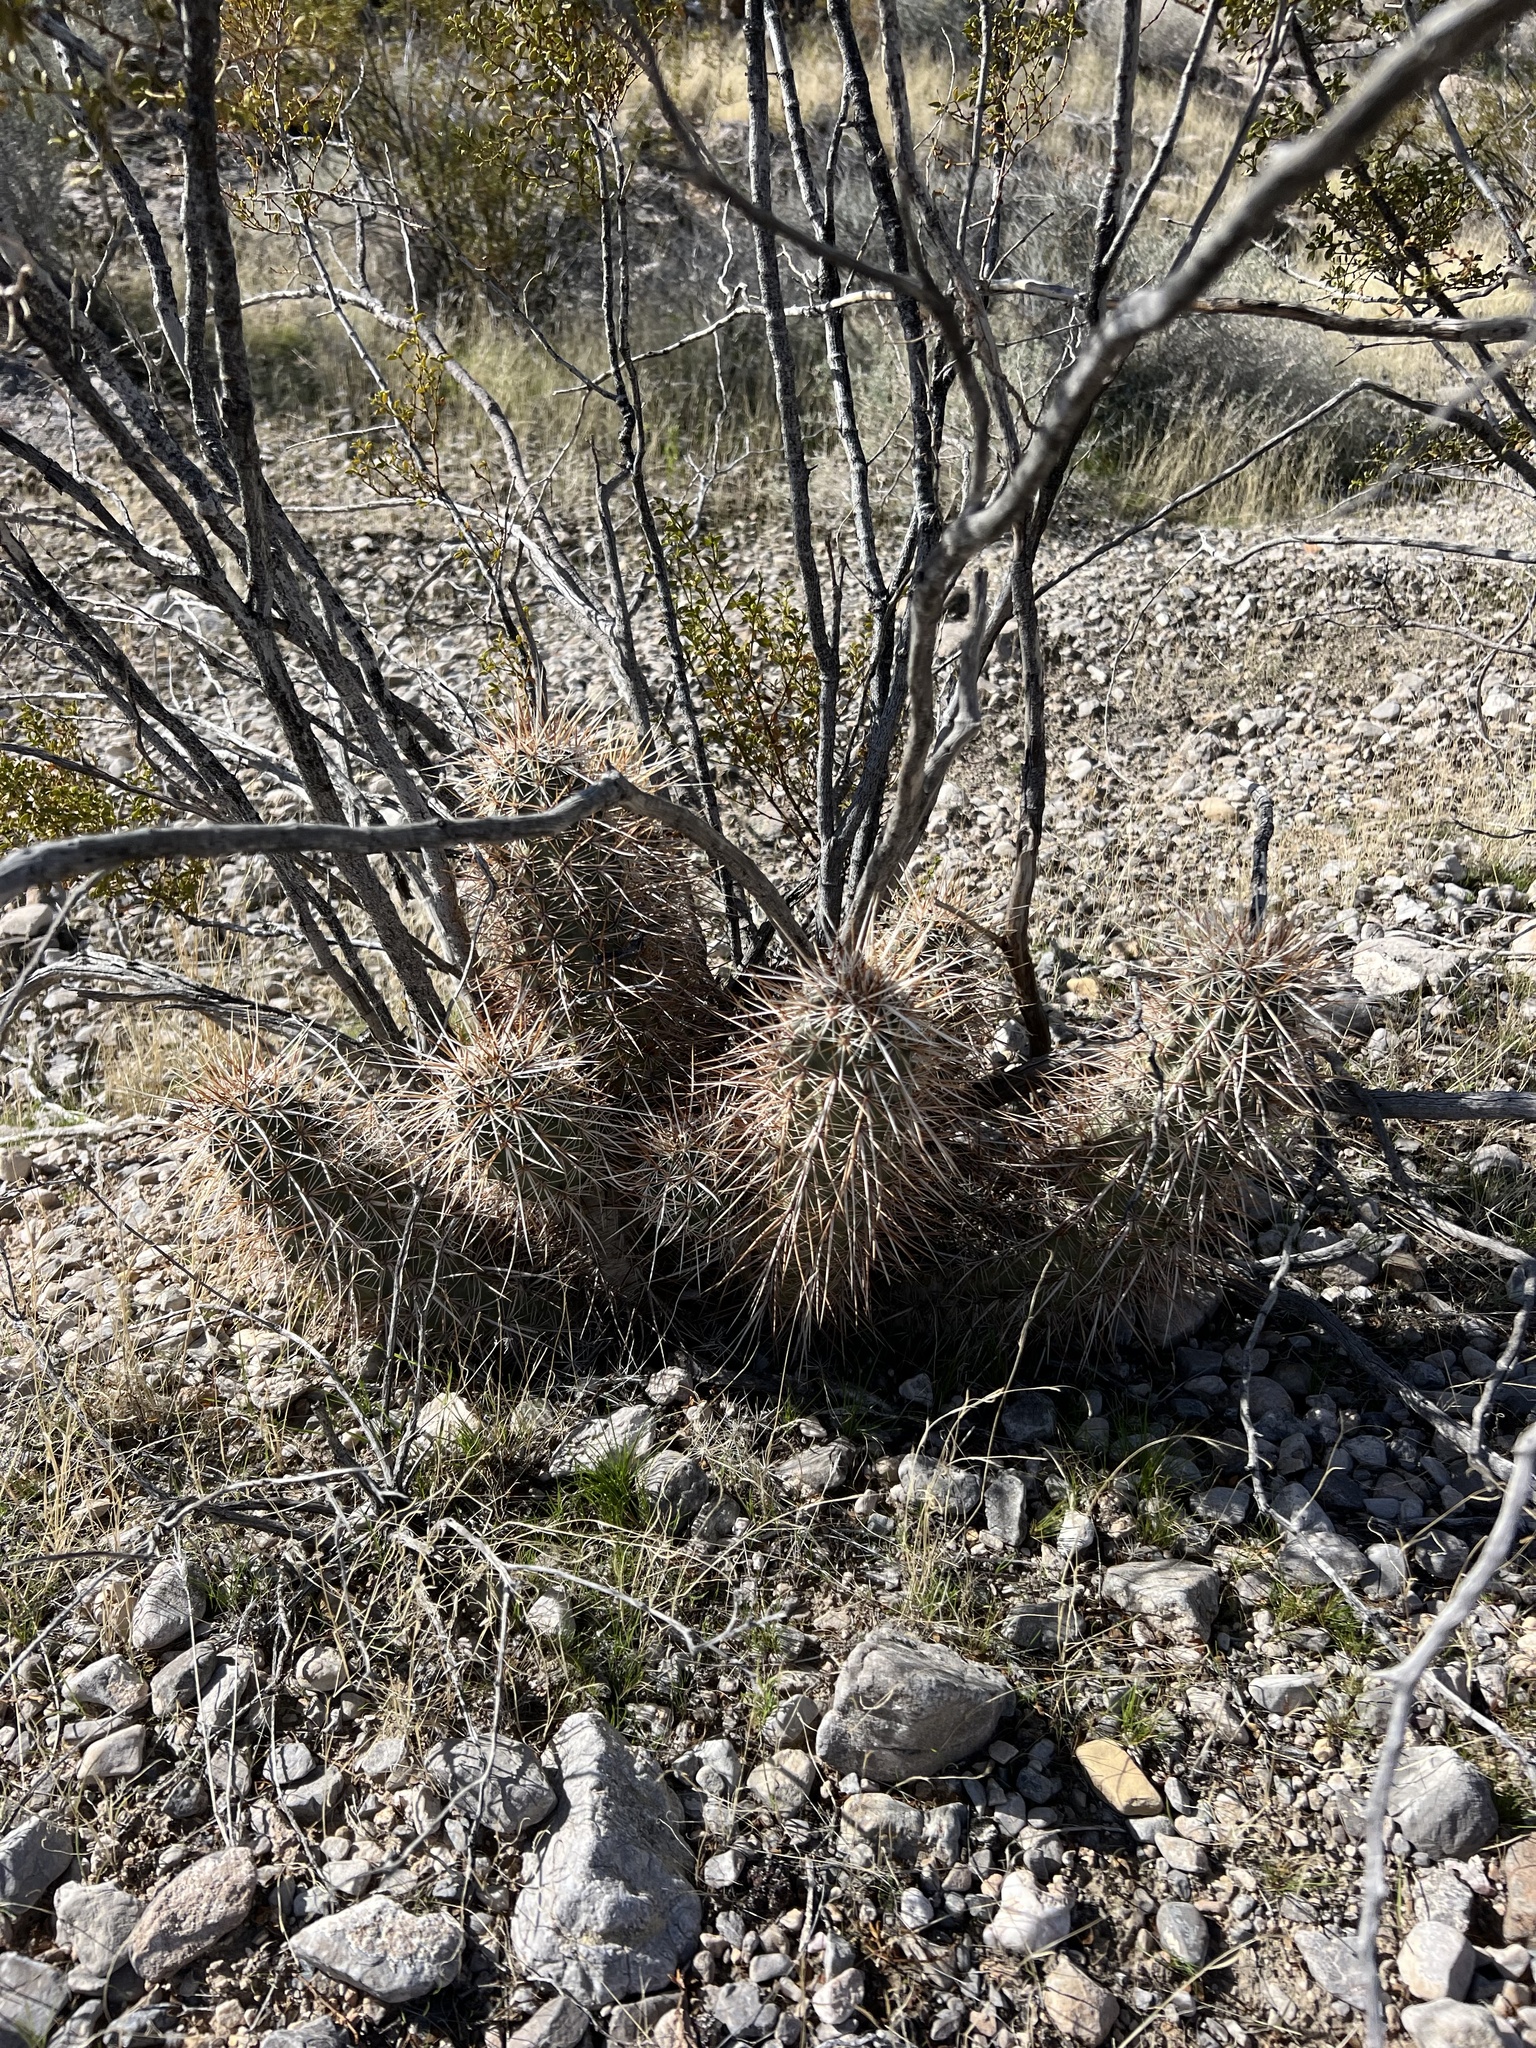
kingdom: Plantae
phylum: Tracheophyta
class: Magnoliopsida
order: Caryophyllales
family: Cactaceae
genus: Echinocereus
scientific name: Echinocereus engelmannii
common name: Engelmann's hedgehog cactus
